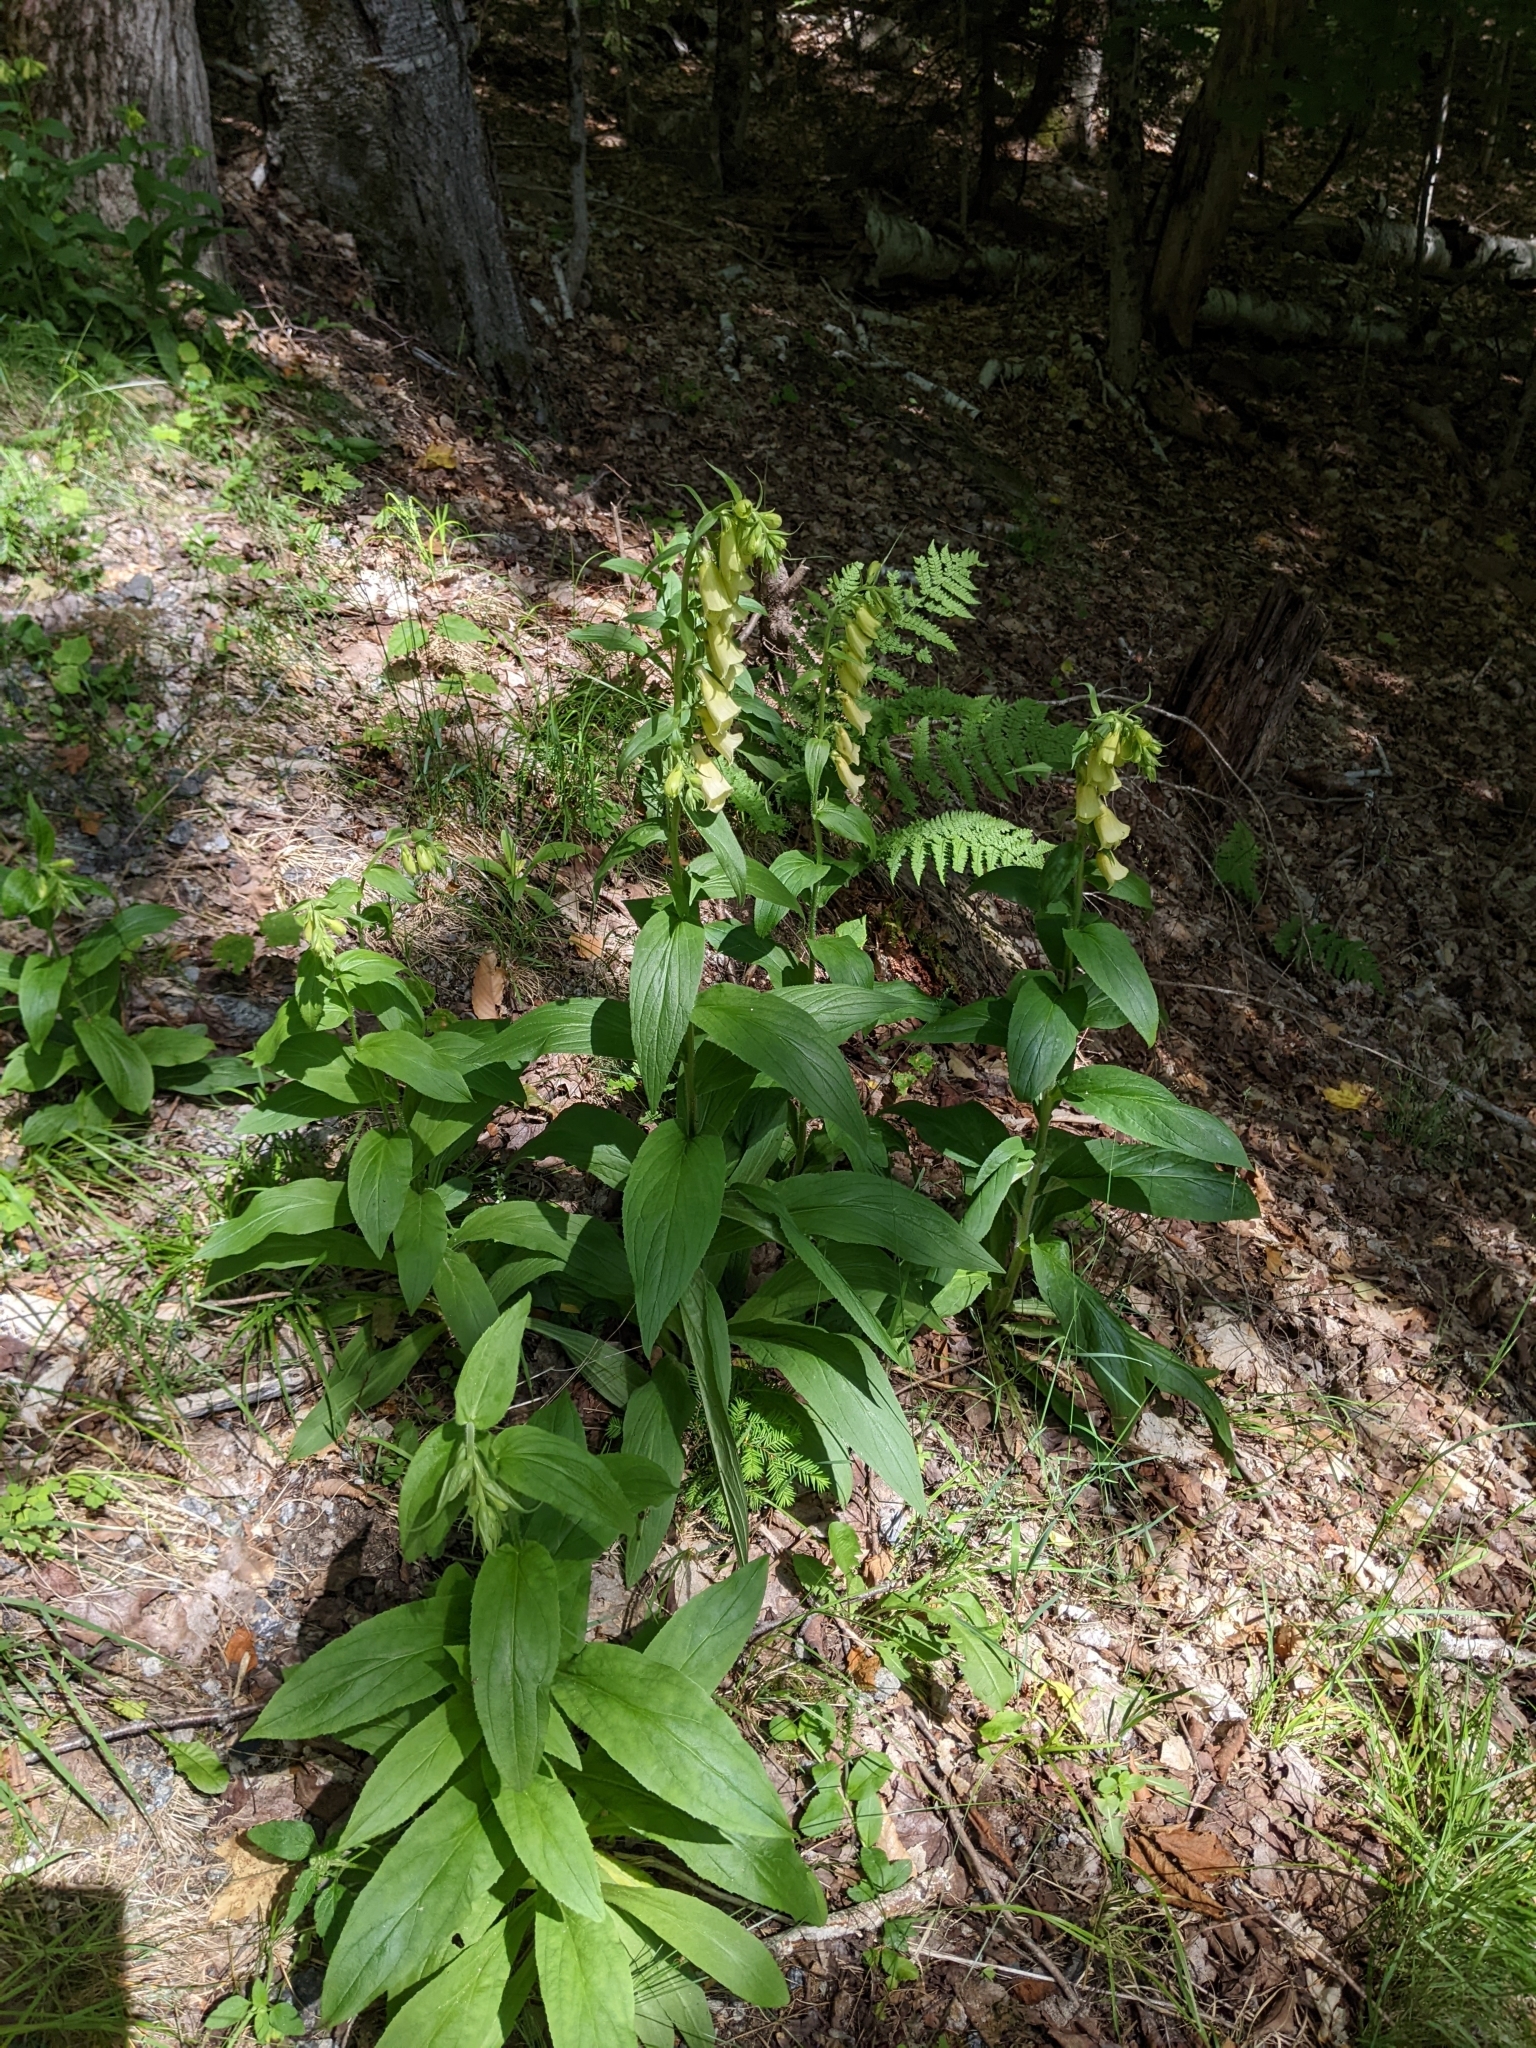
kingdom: Plantae
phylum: Tracheophyta
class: Magnoliopsida
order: Lamiales
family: Plantaginaceae
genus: Digitalis
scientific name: Digitalis grandiflora
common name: Yellow foxglove
